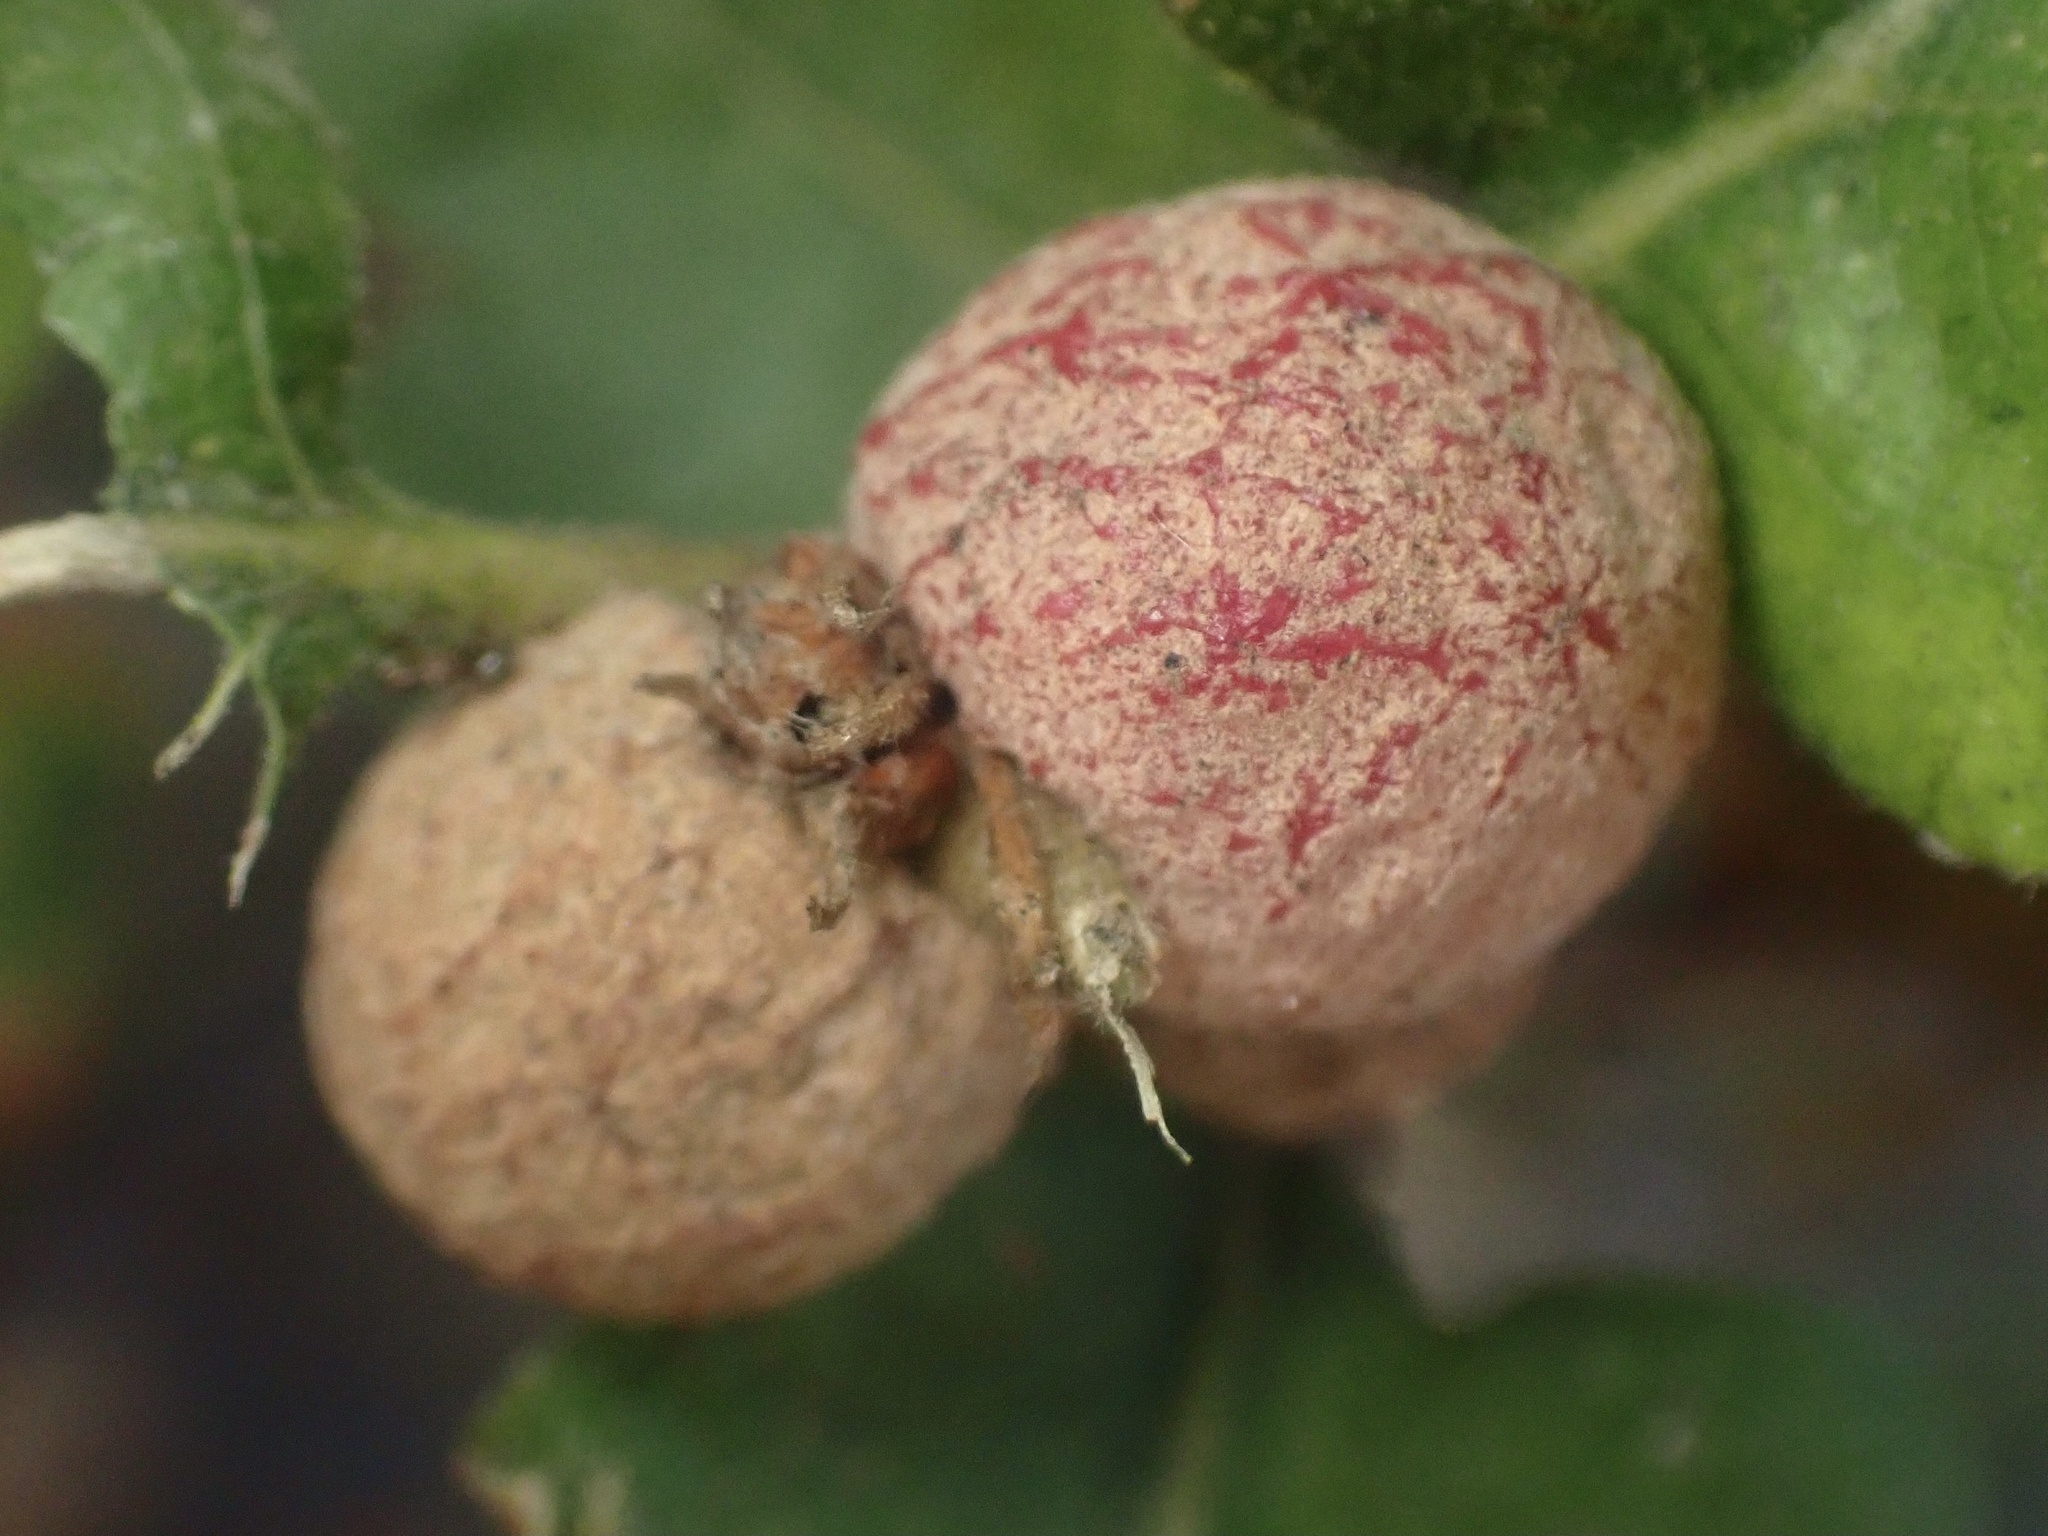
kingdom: Animalia
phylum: Arthropoda
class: Insecta
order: Hymenoptera
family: Cynipidae
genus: Cynips
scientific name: Cynips conspicua
